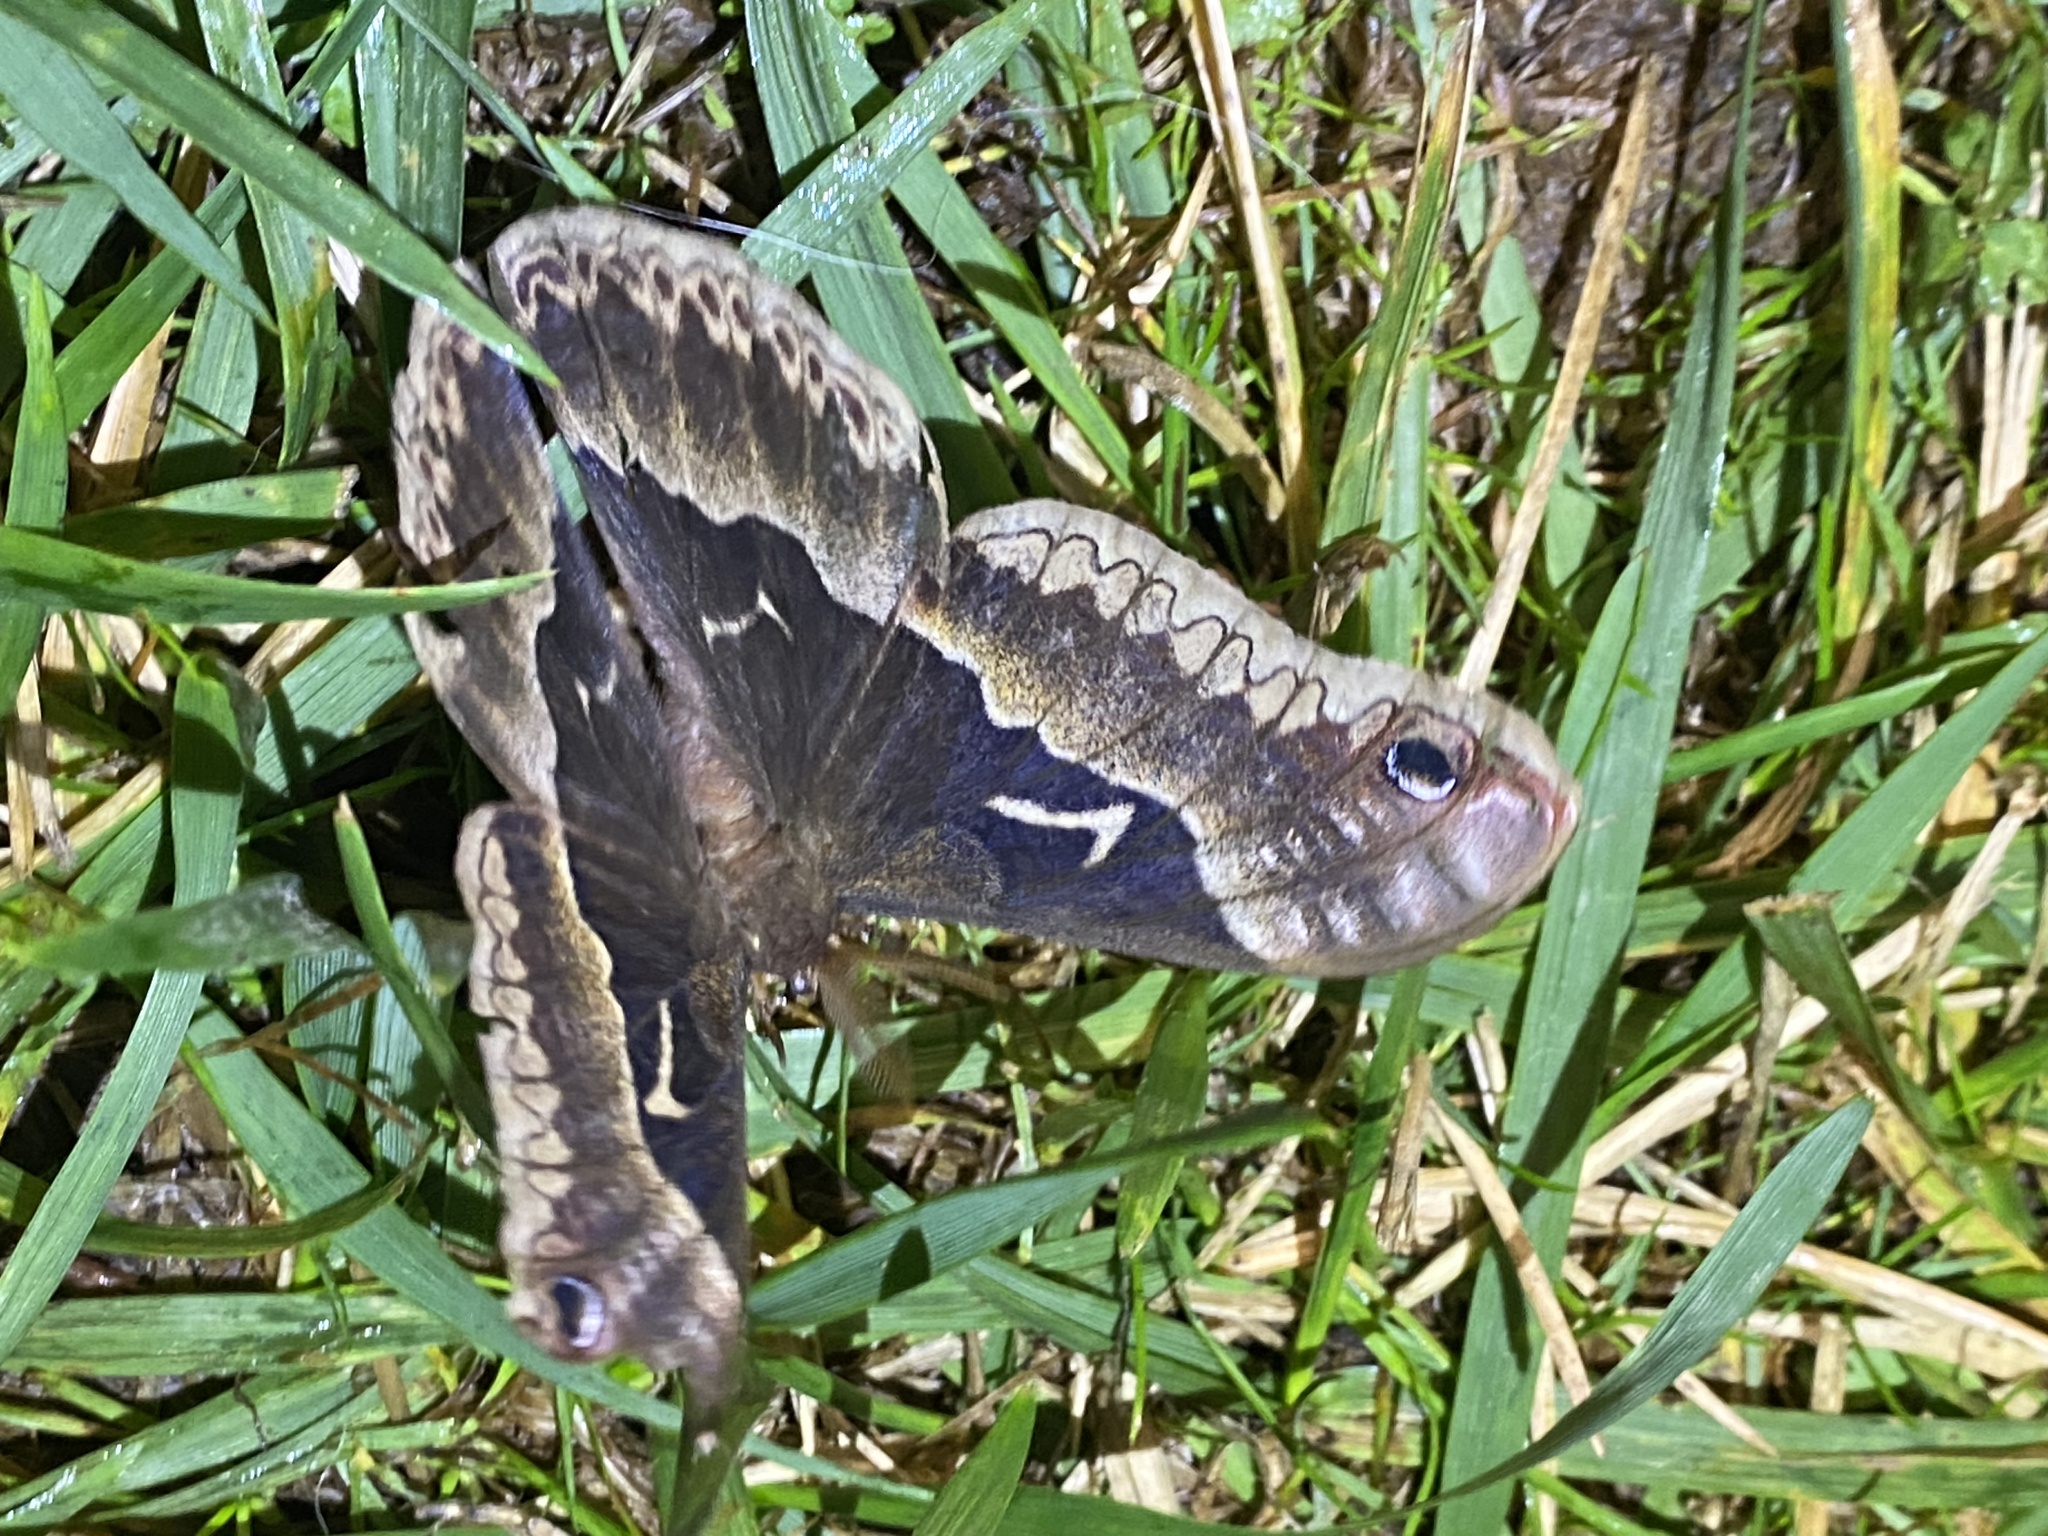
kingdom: Animalia
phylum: Arthropoda
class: Insecta
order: Lepidoptera
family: Saturniidae
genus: Callosamia
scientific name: Callosamia angulifera
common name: Tulip tree silkmoth
